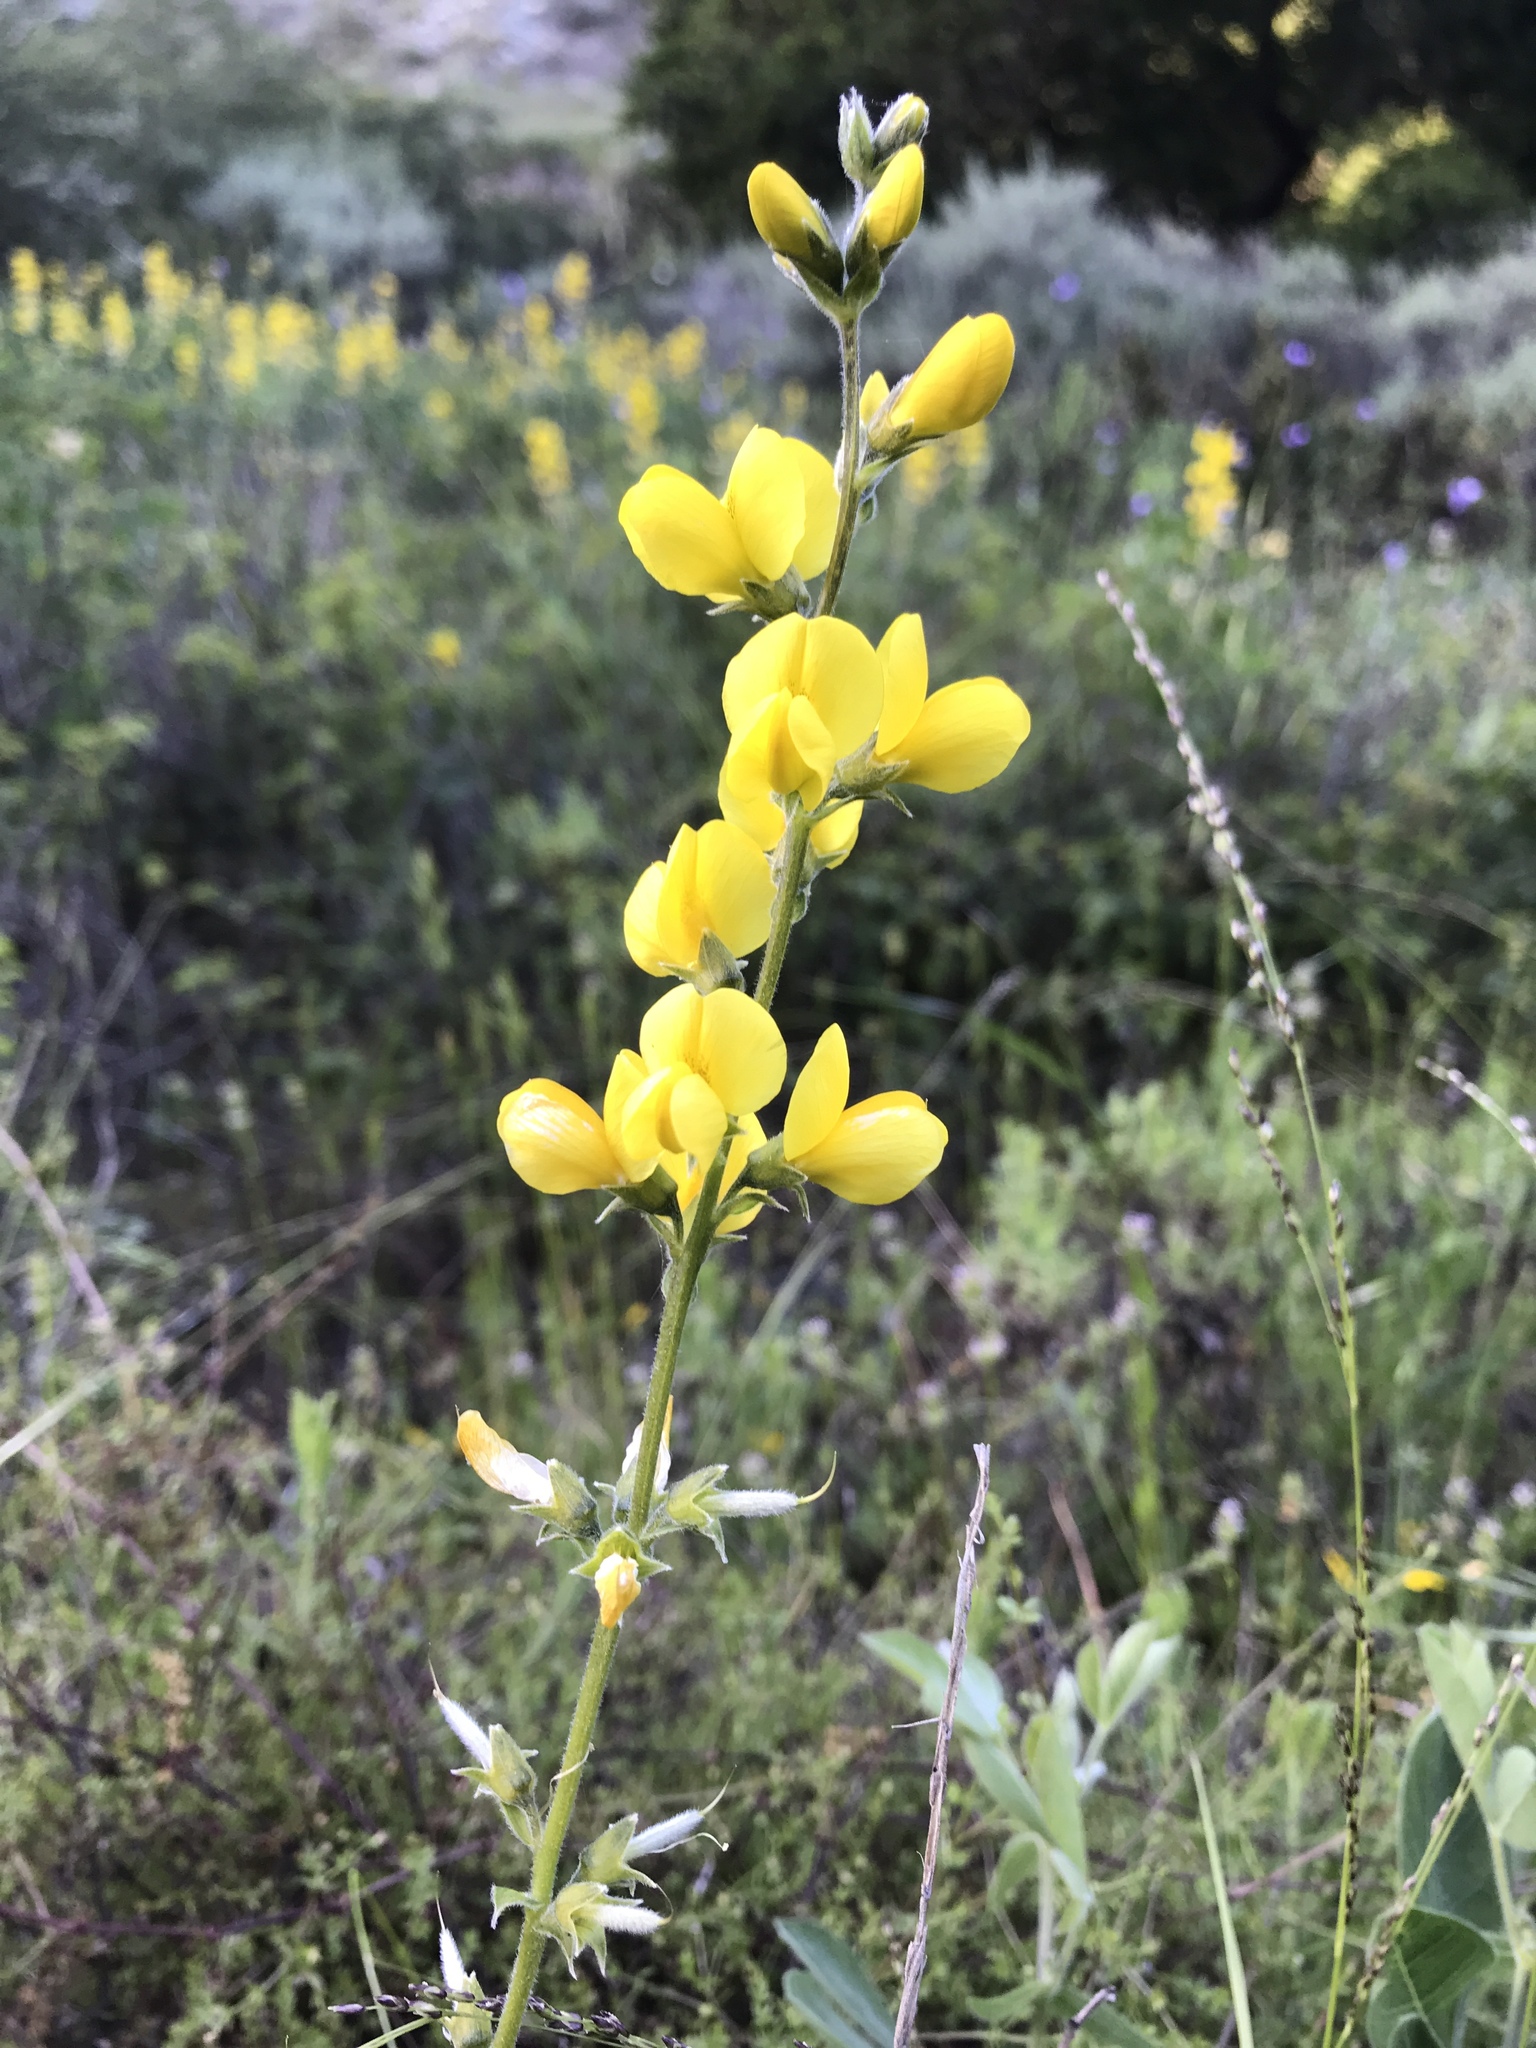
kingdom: Plantae
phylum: Tracheophyta
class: Magnoliopsida
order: Fabales
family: Fabaceae
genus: Thermopsis
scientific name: Thermopsis californica
